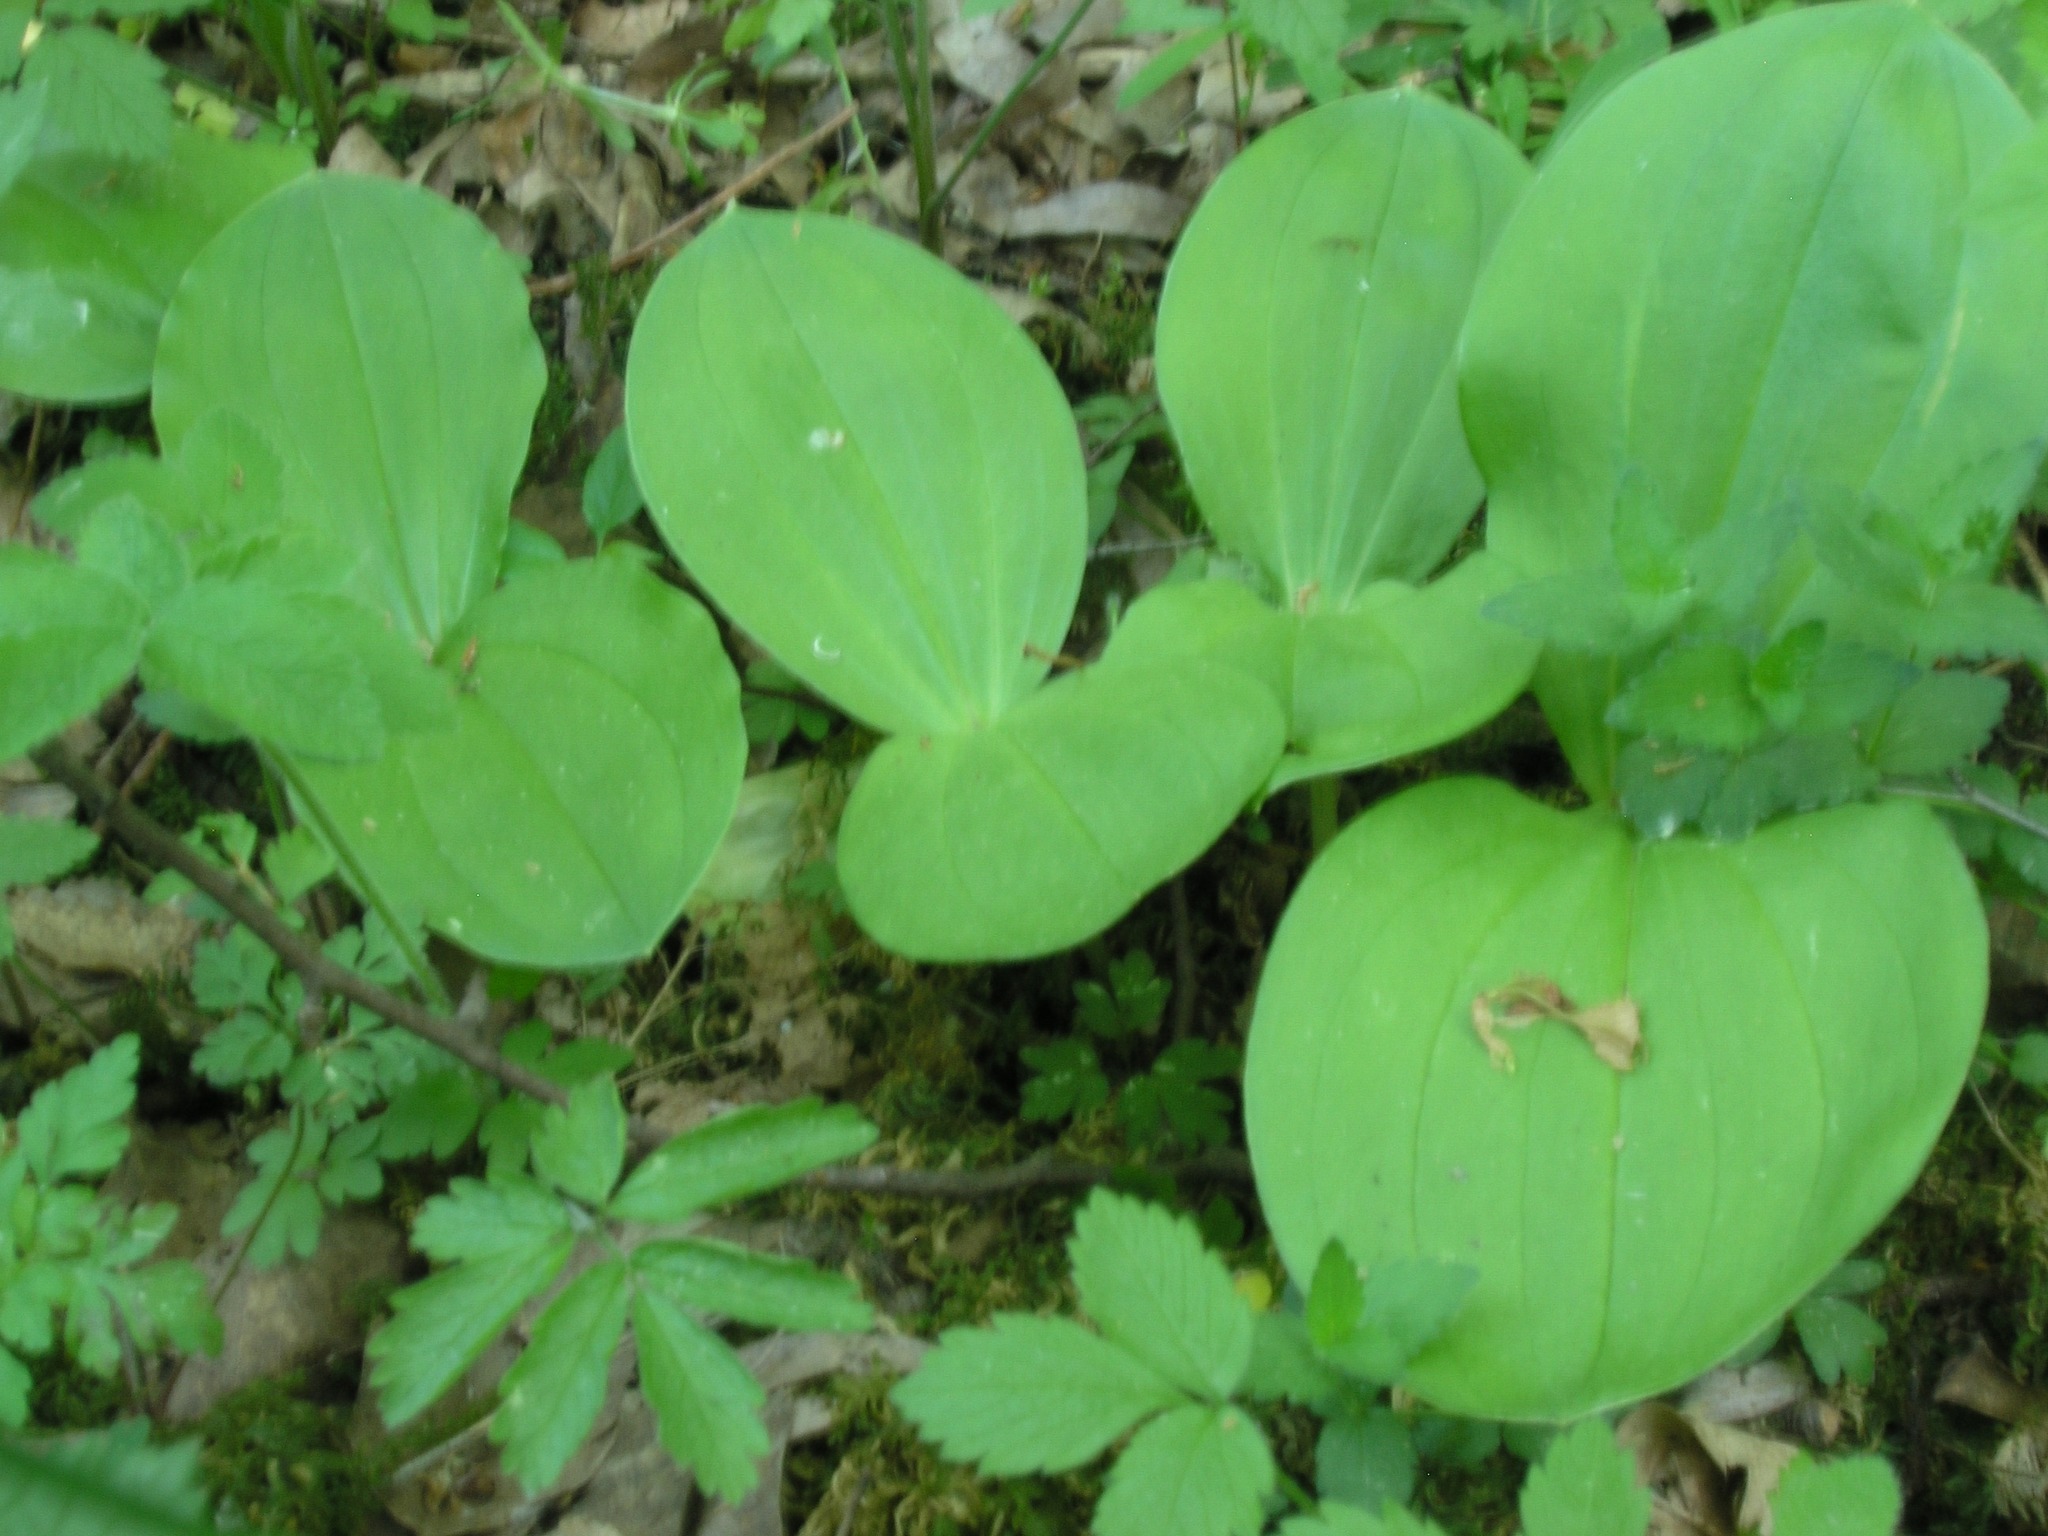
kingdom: Plantae
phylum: Tracheophyta
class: Liliopsida
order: Asparagales
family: Orchidaceae
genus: Neottia
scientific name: Neottia ovata
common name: Common twayblade
